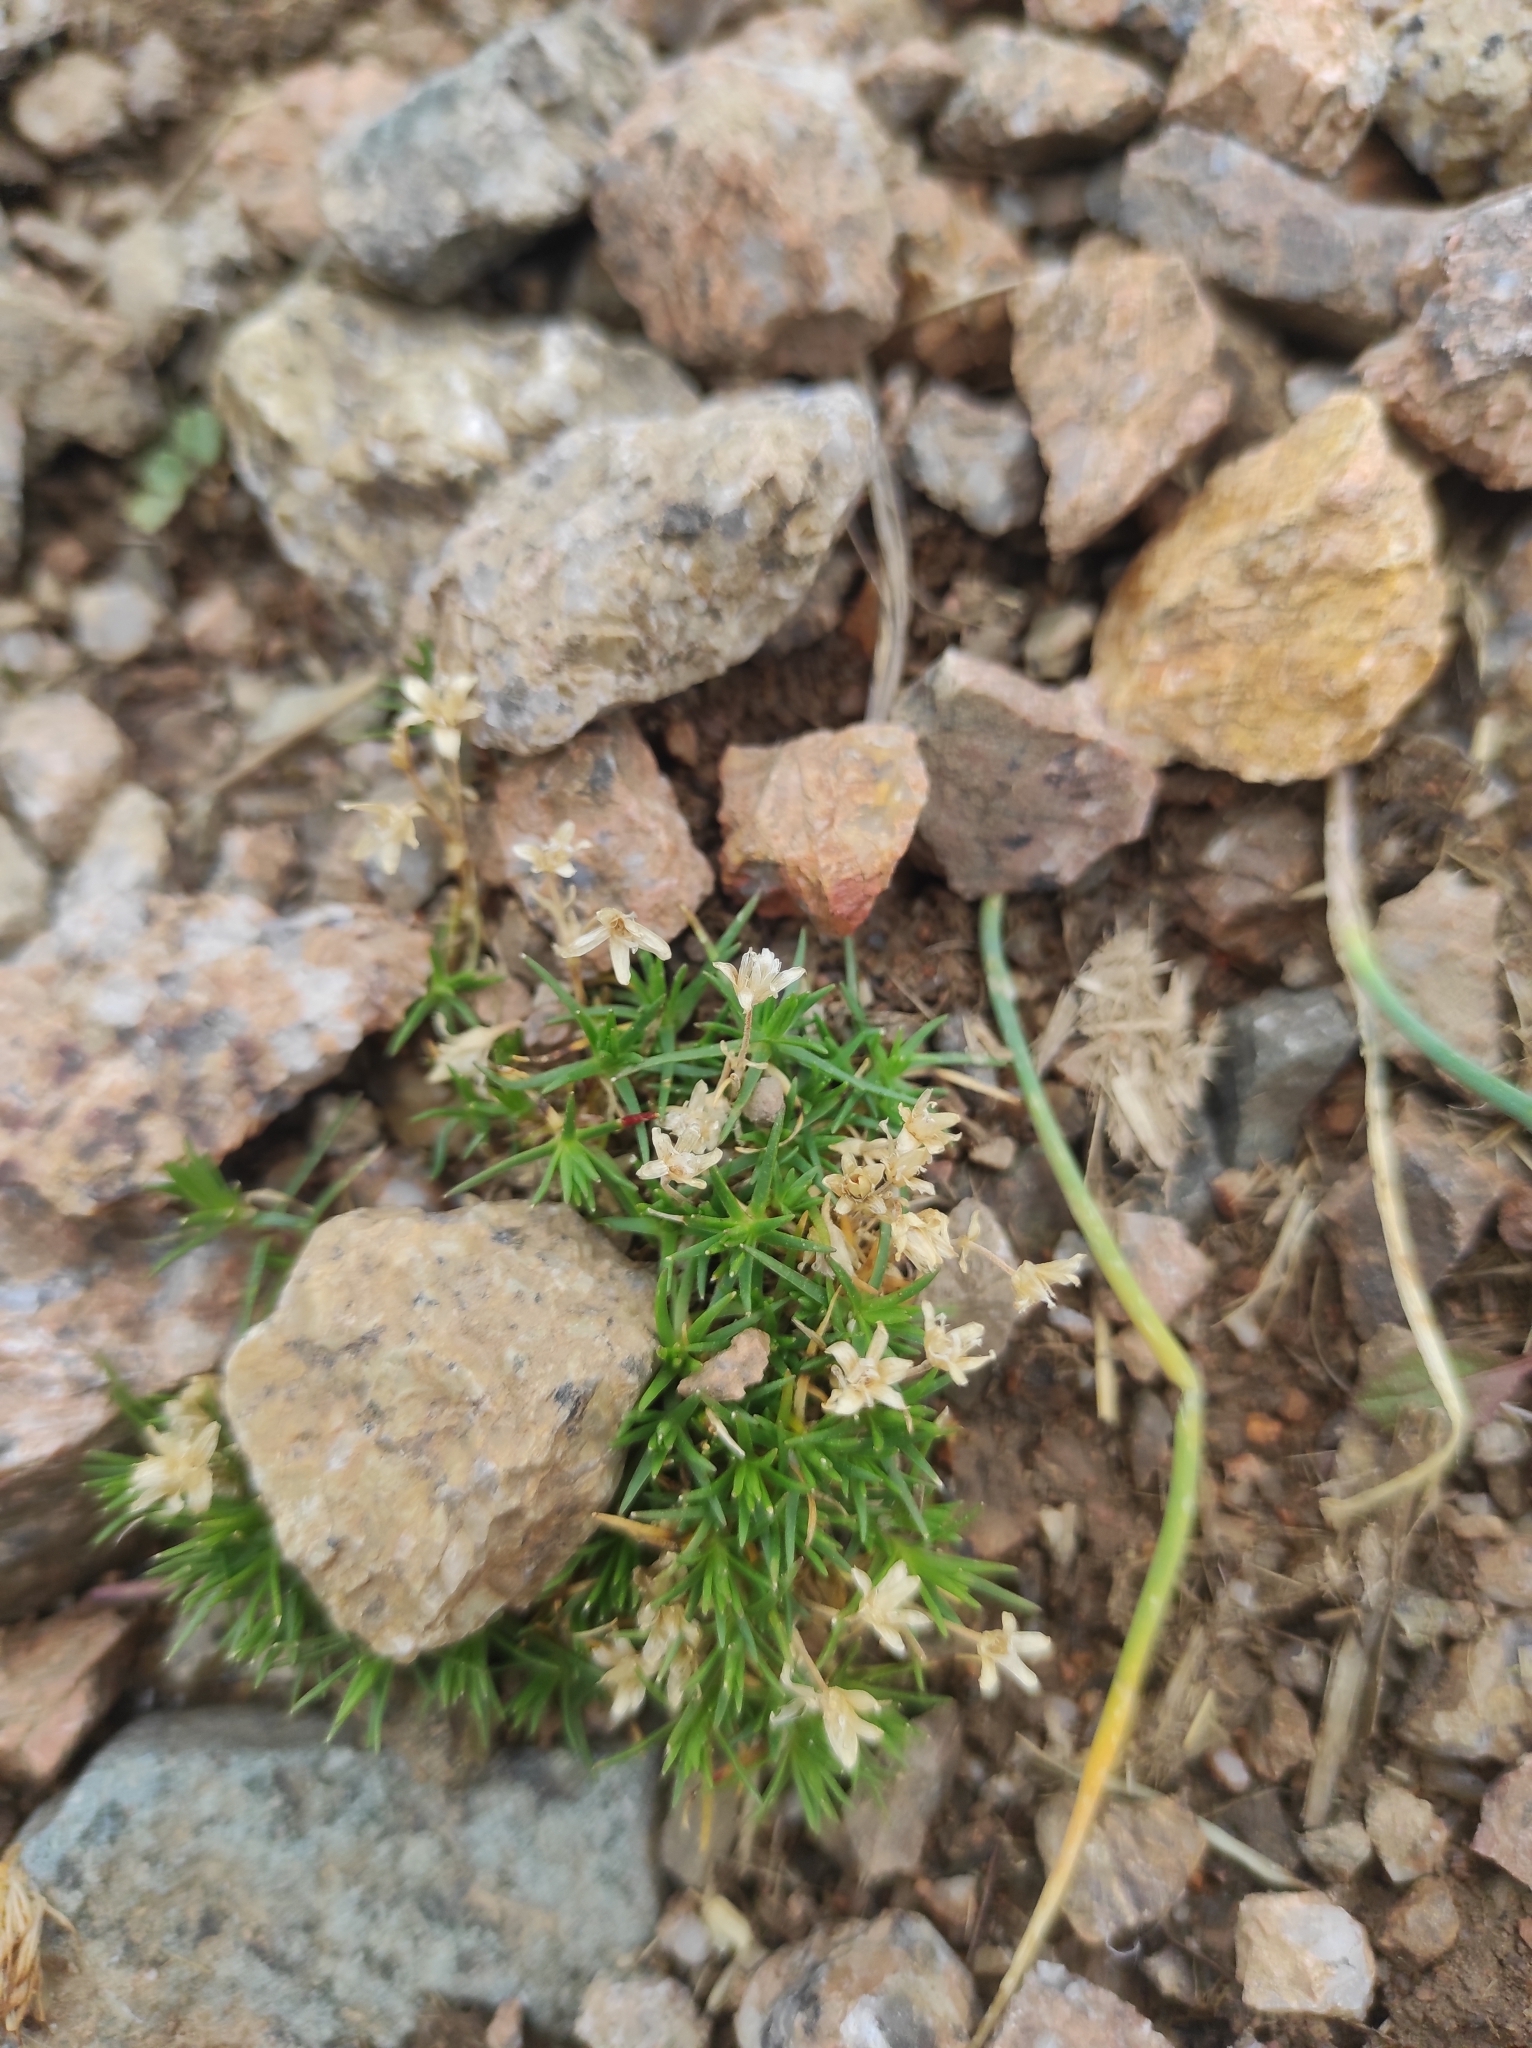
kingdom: Plantae
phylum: Tracheophyta
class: Magnoliopsida
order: Caryophyllales
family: Caryophyllaceae
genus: Cherleria
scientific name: Cherleria biflora
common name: Mountain sandwort
